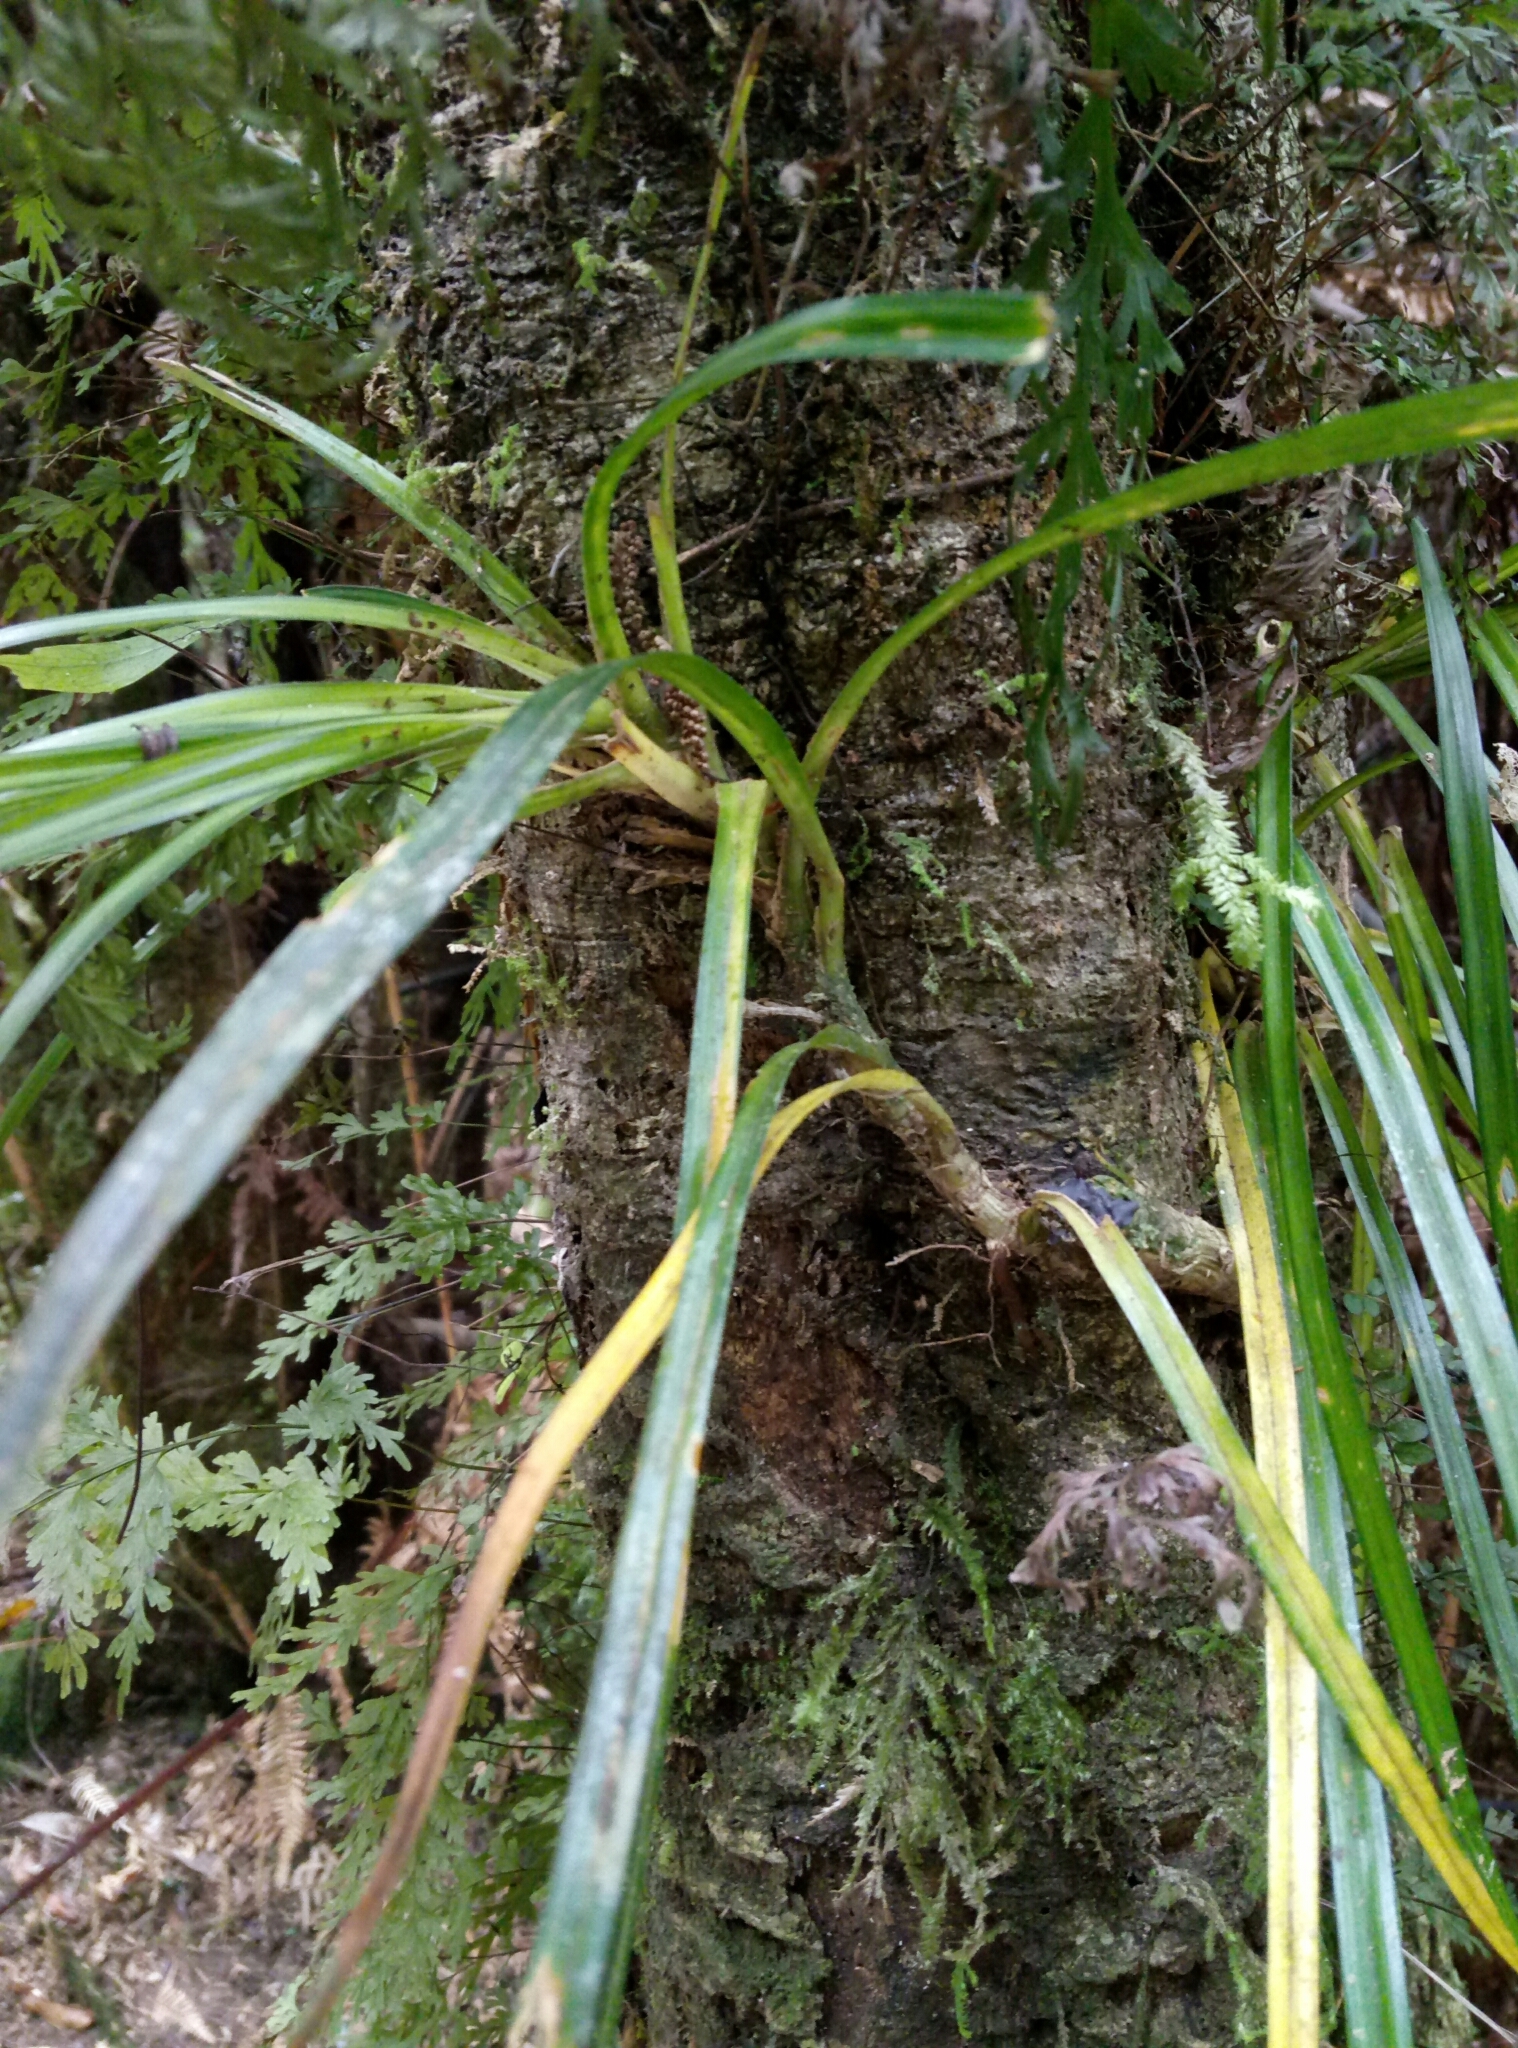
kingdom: Plantae
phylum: Tracheophyta
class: Liliopsida
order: Pandanales
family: Pandanaceae
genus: Freycinetia
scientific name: Freycinetia banksii
